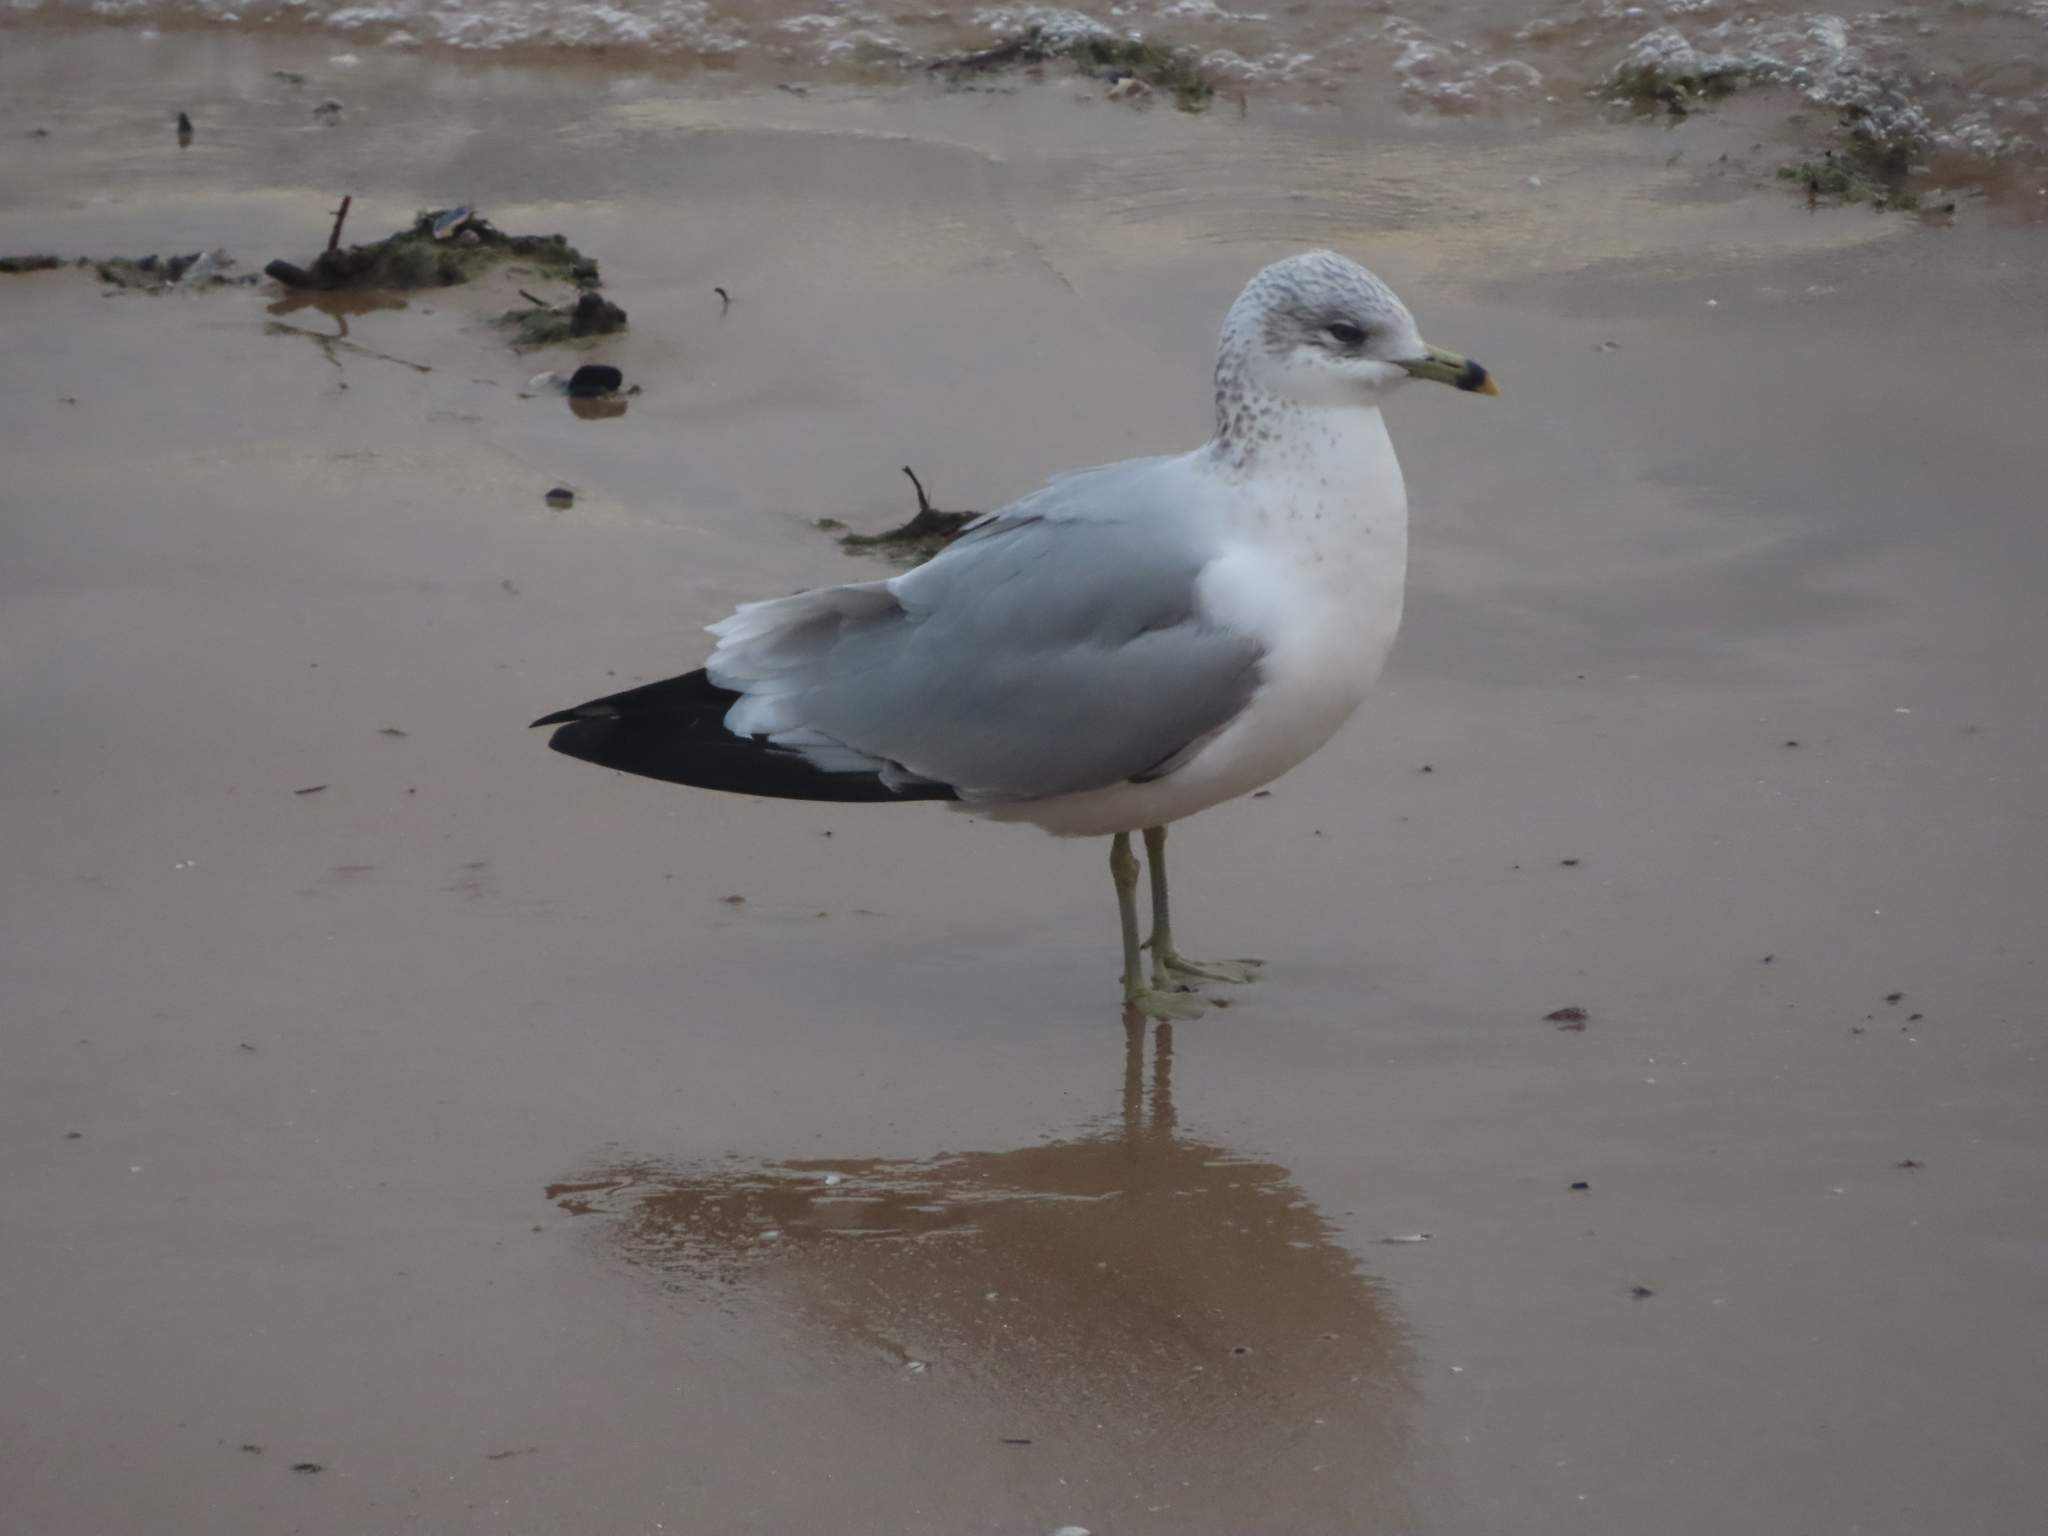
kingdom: Animalia
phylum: Chordata
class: Aves
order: Charadriiformes
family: Laridae
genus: Larus
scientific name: Larus delawarensis
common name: Ring-billed gull
